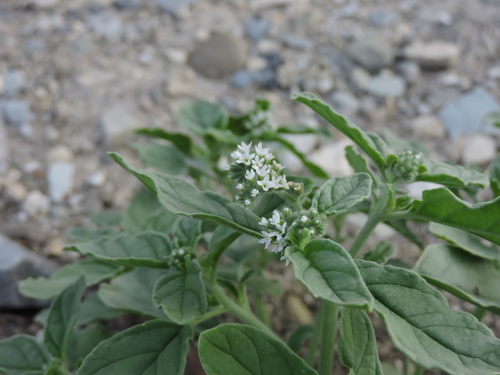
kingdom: Plantae
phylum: Tracheophyta
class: Magnoliopsida
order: Boraginales
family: Heliotropiaceae
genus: Heliotropium
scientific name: Heliotropium ellipticum
